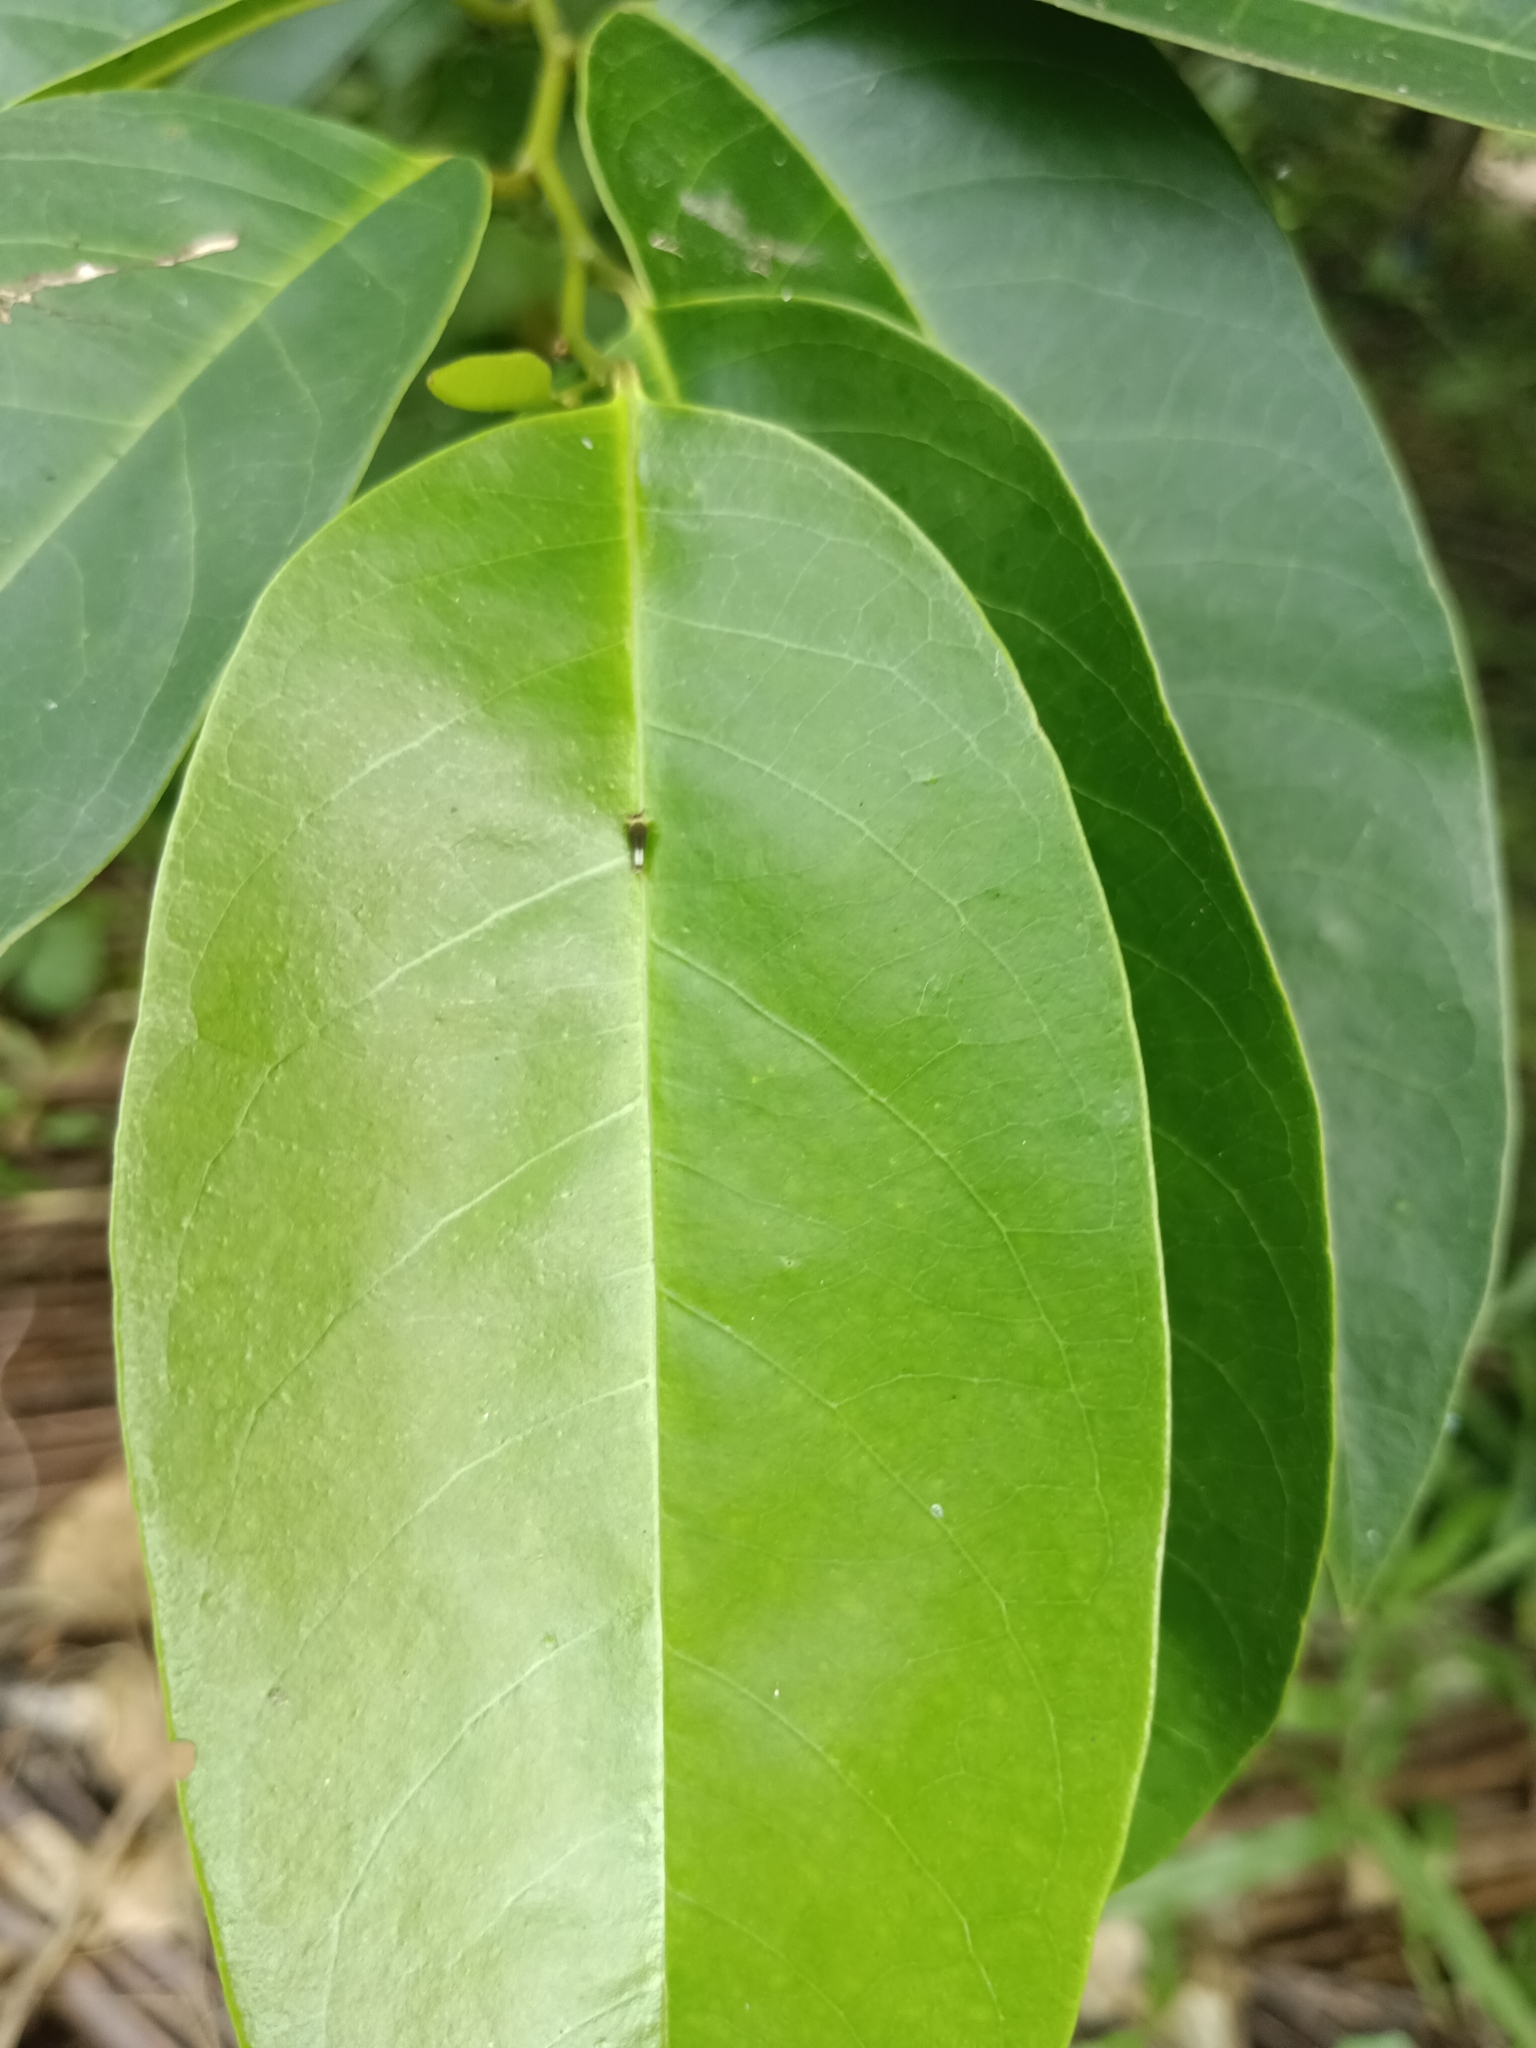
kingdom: Animalia
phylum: Arthropoda
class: Insecta
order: Lepidoptera
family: Papilionidae
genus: Graphium
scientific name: Graphium agamemnon
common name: Tailed jay
